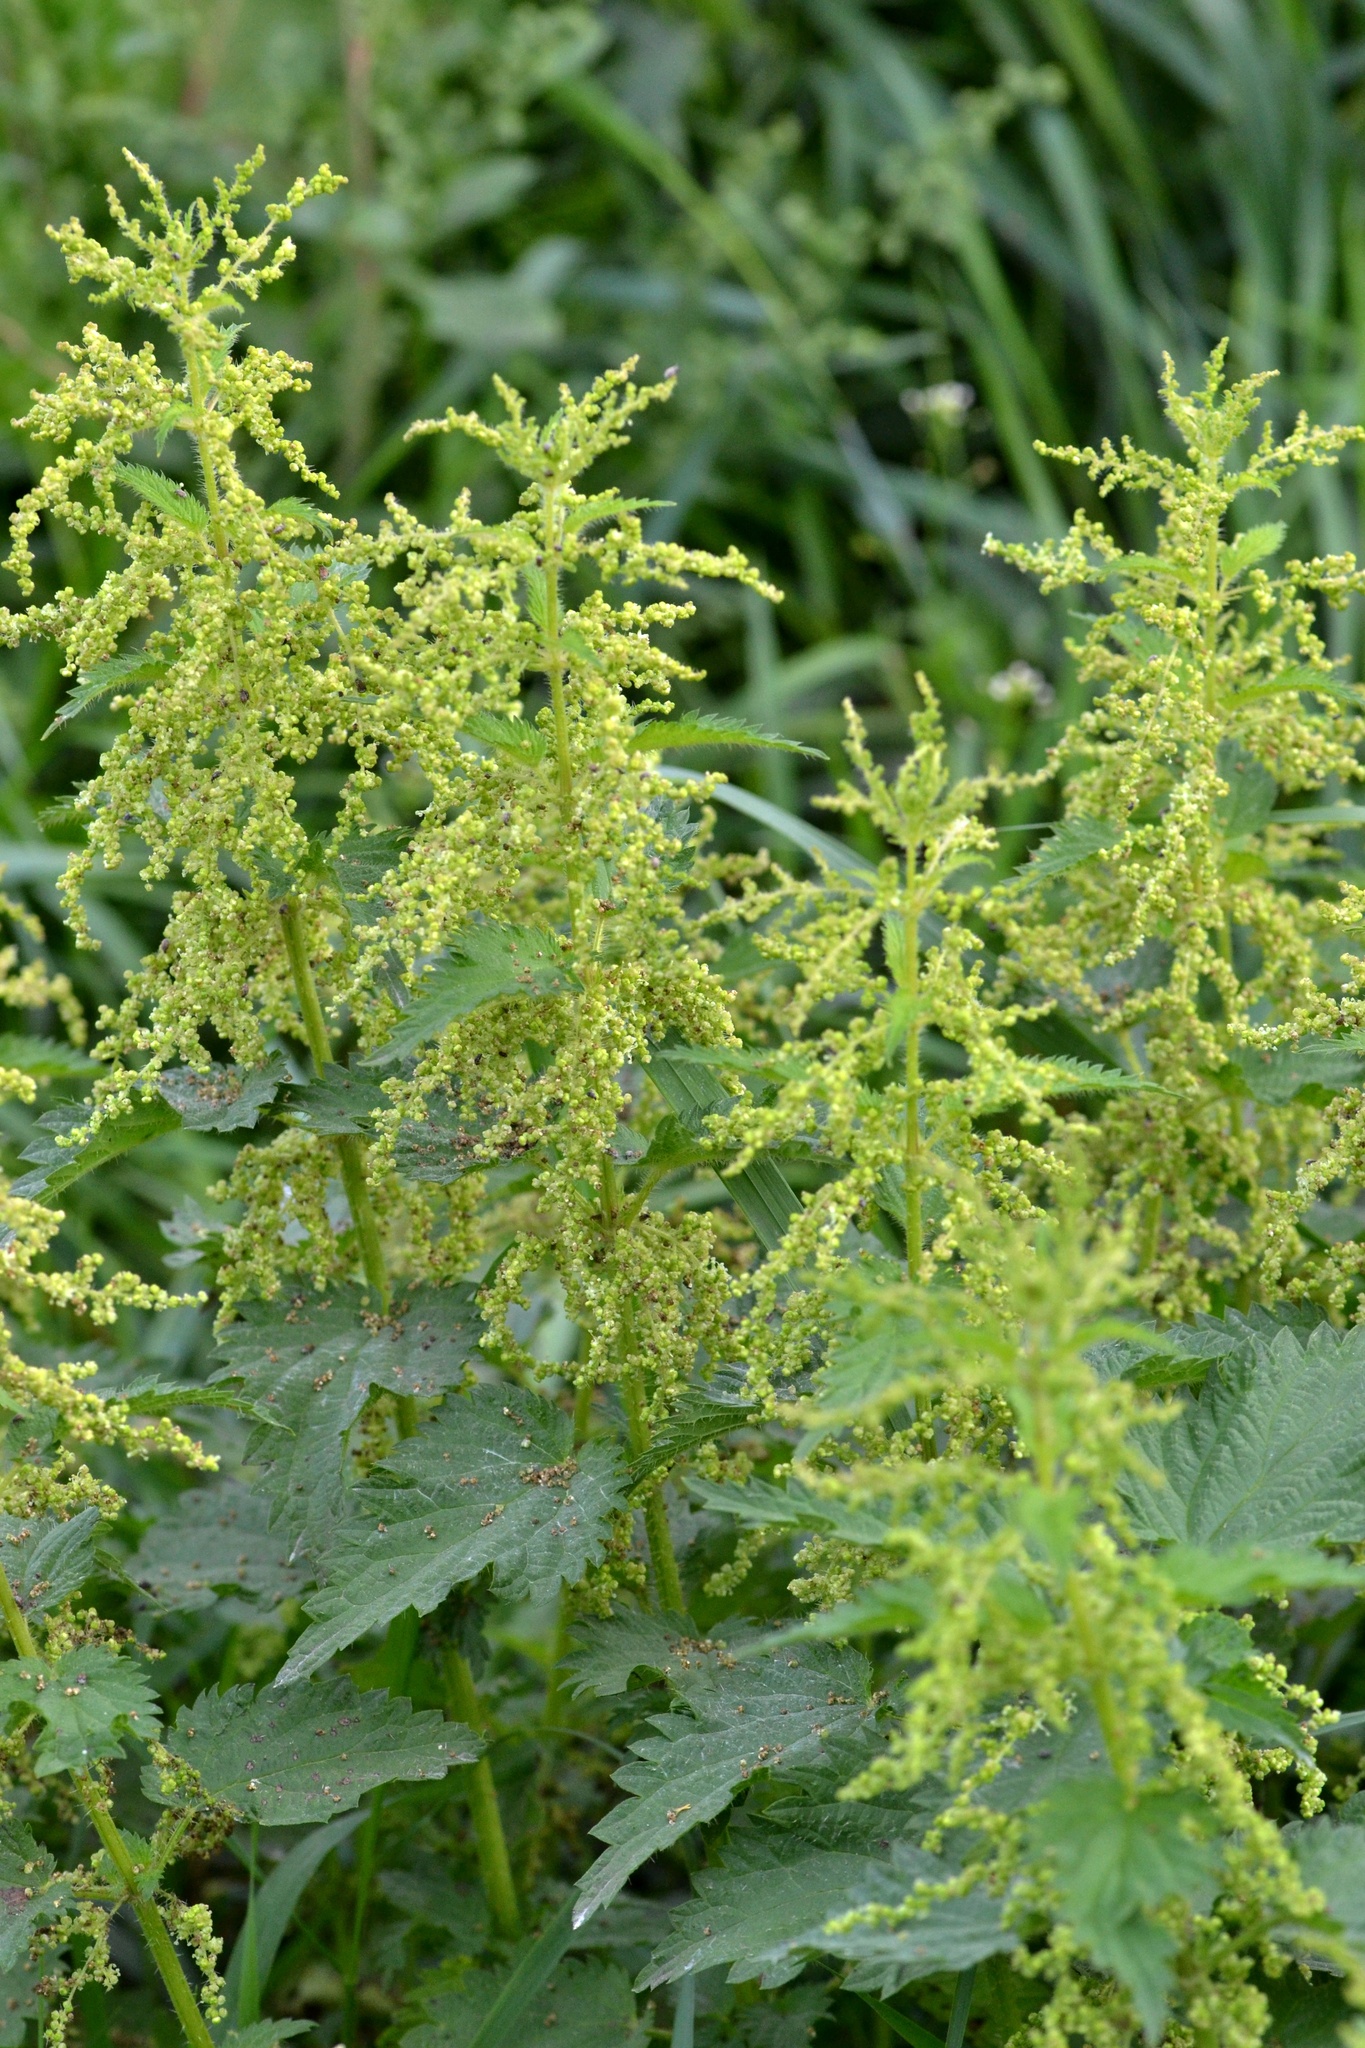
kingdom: Plantae
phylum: Tracheophyta
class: Magnoliopsida
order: Rosales
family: Urticaceae
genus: Urtica
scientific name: Urtica dioica
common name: Common nettle
